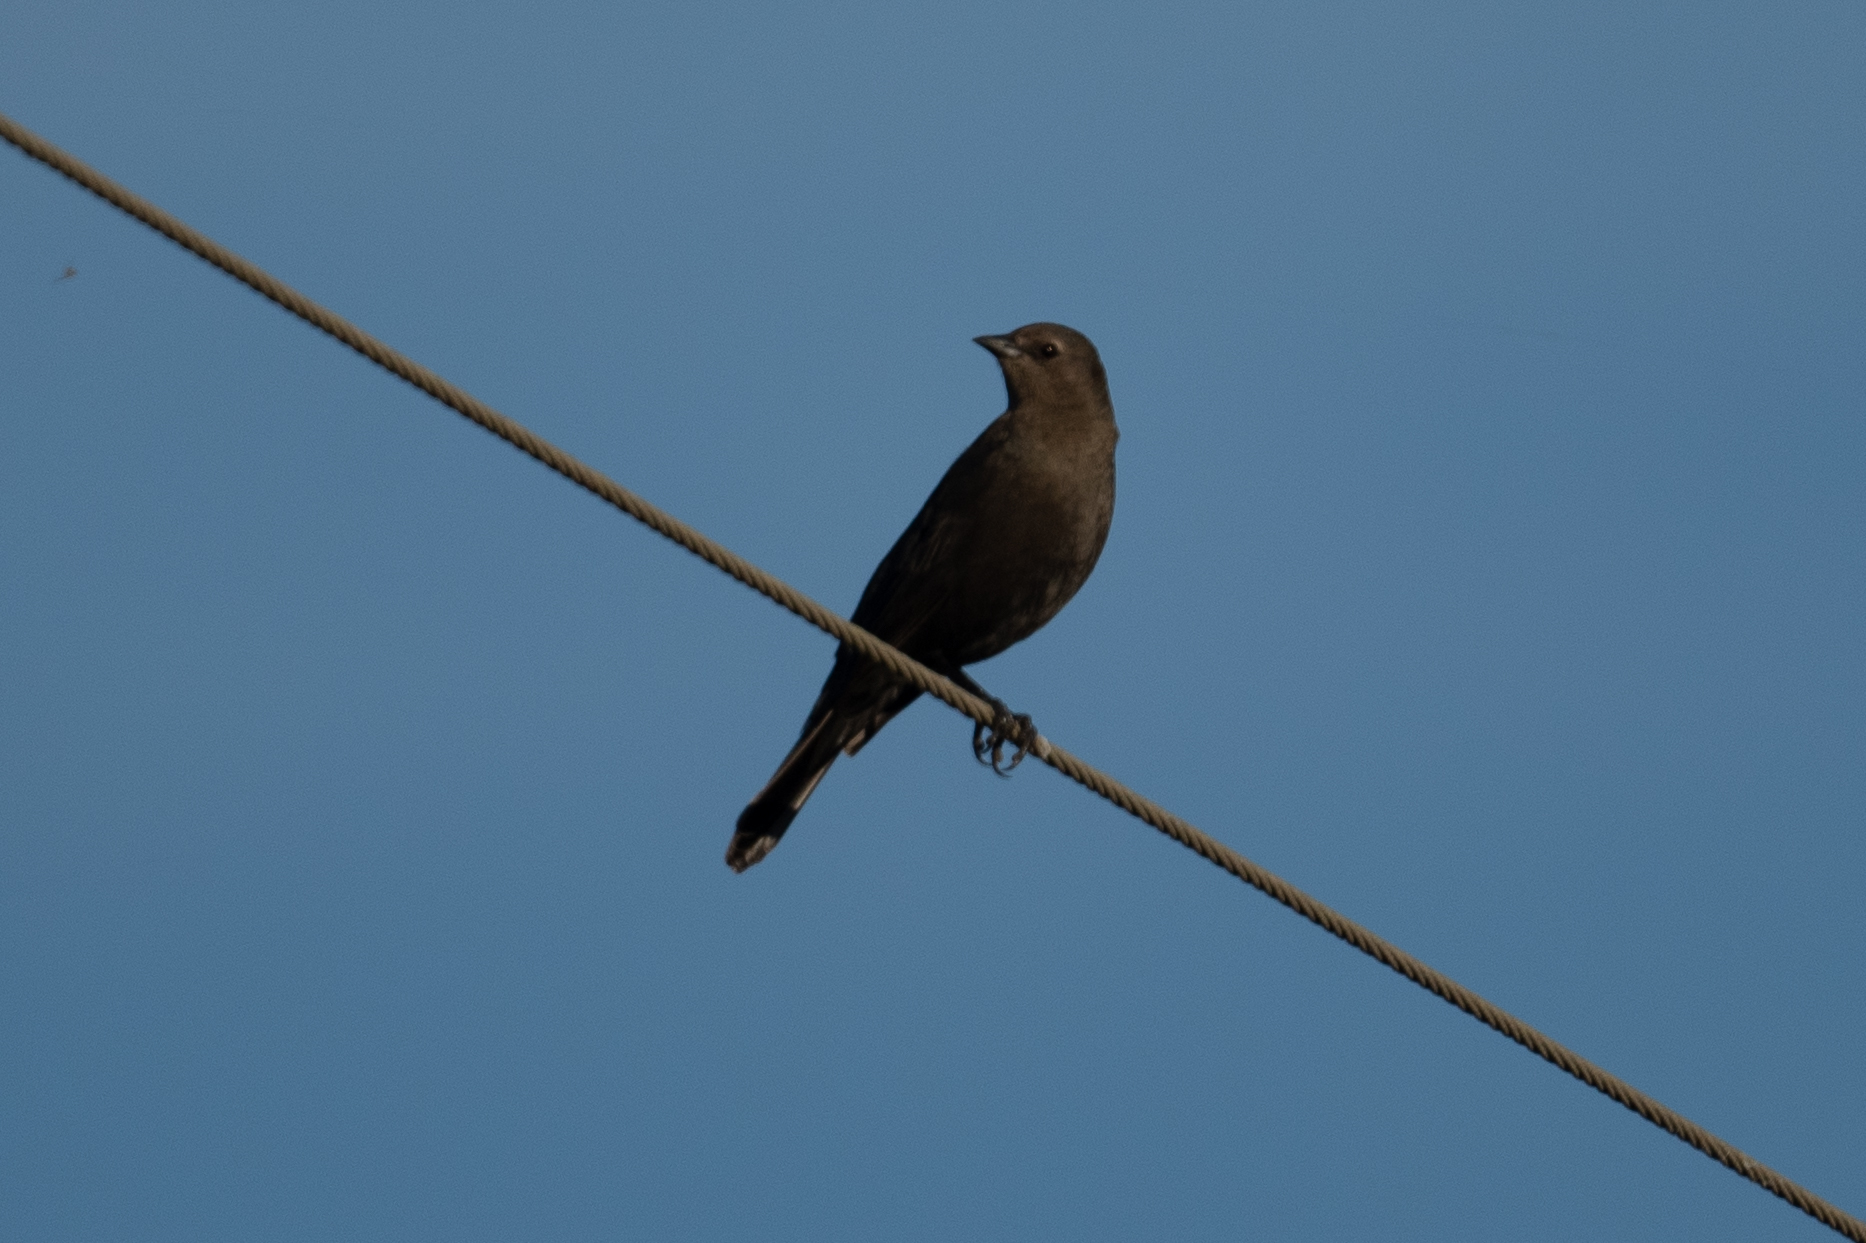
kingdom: Animalia
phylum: Chordata
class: Aves
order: Passeriformes
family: Icteridae
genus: Euphagus
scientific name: Euphagus cyanocephalus
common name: Brewer's blackbird
